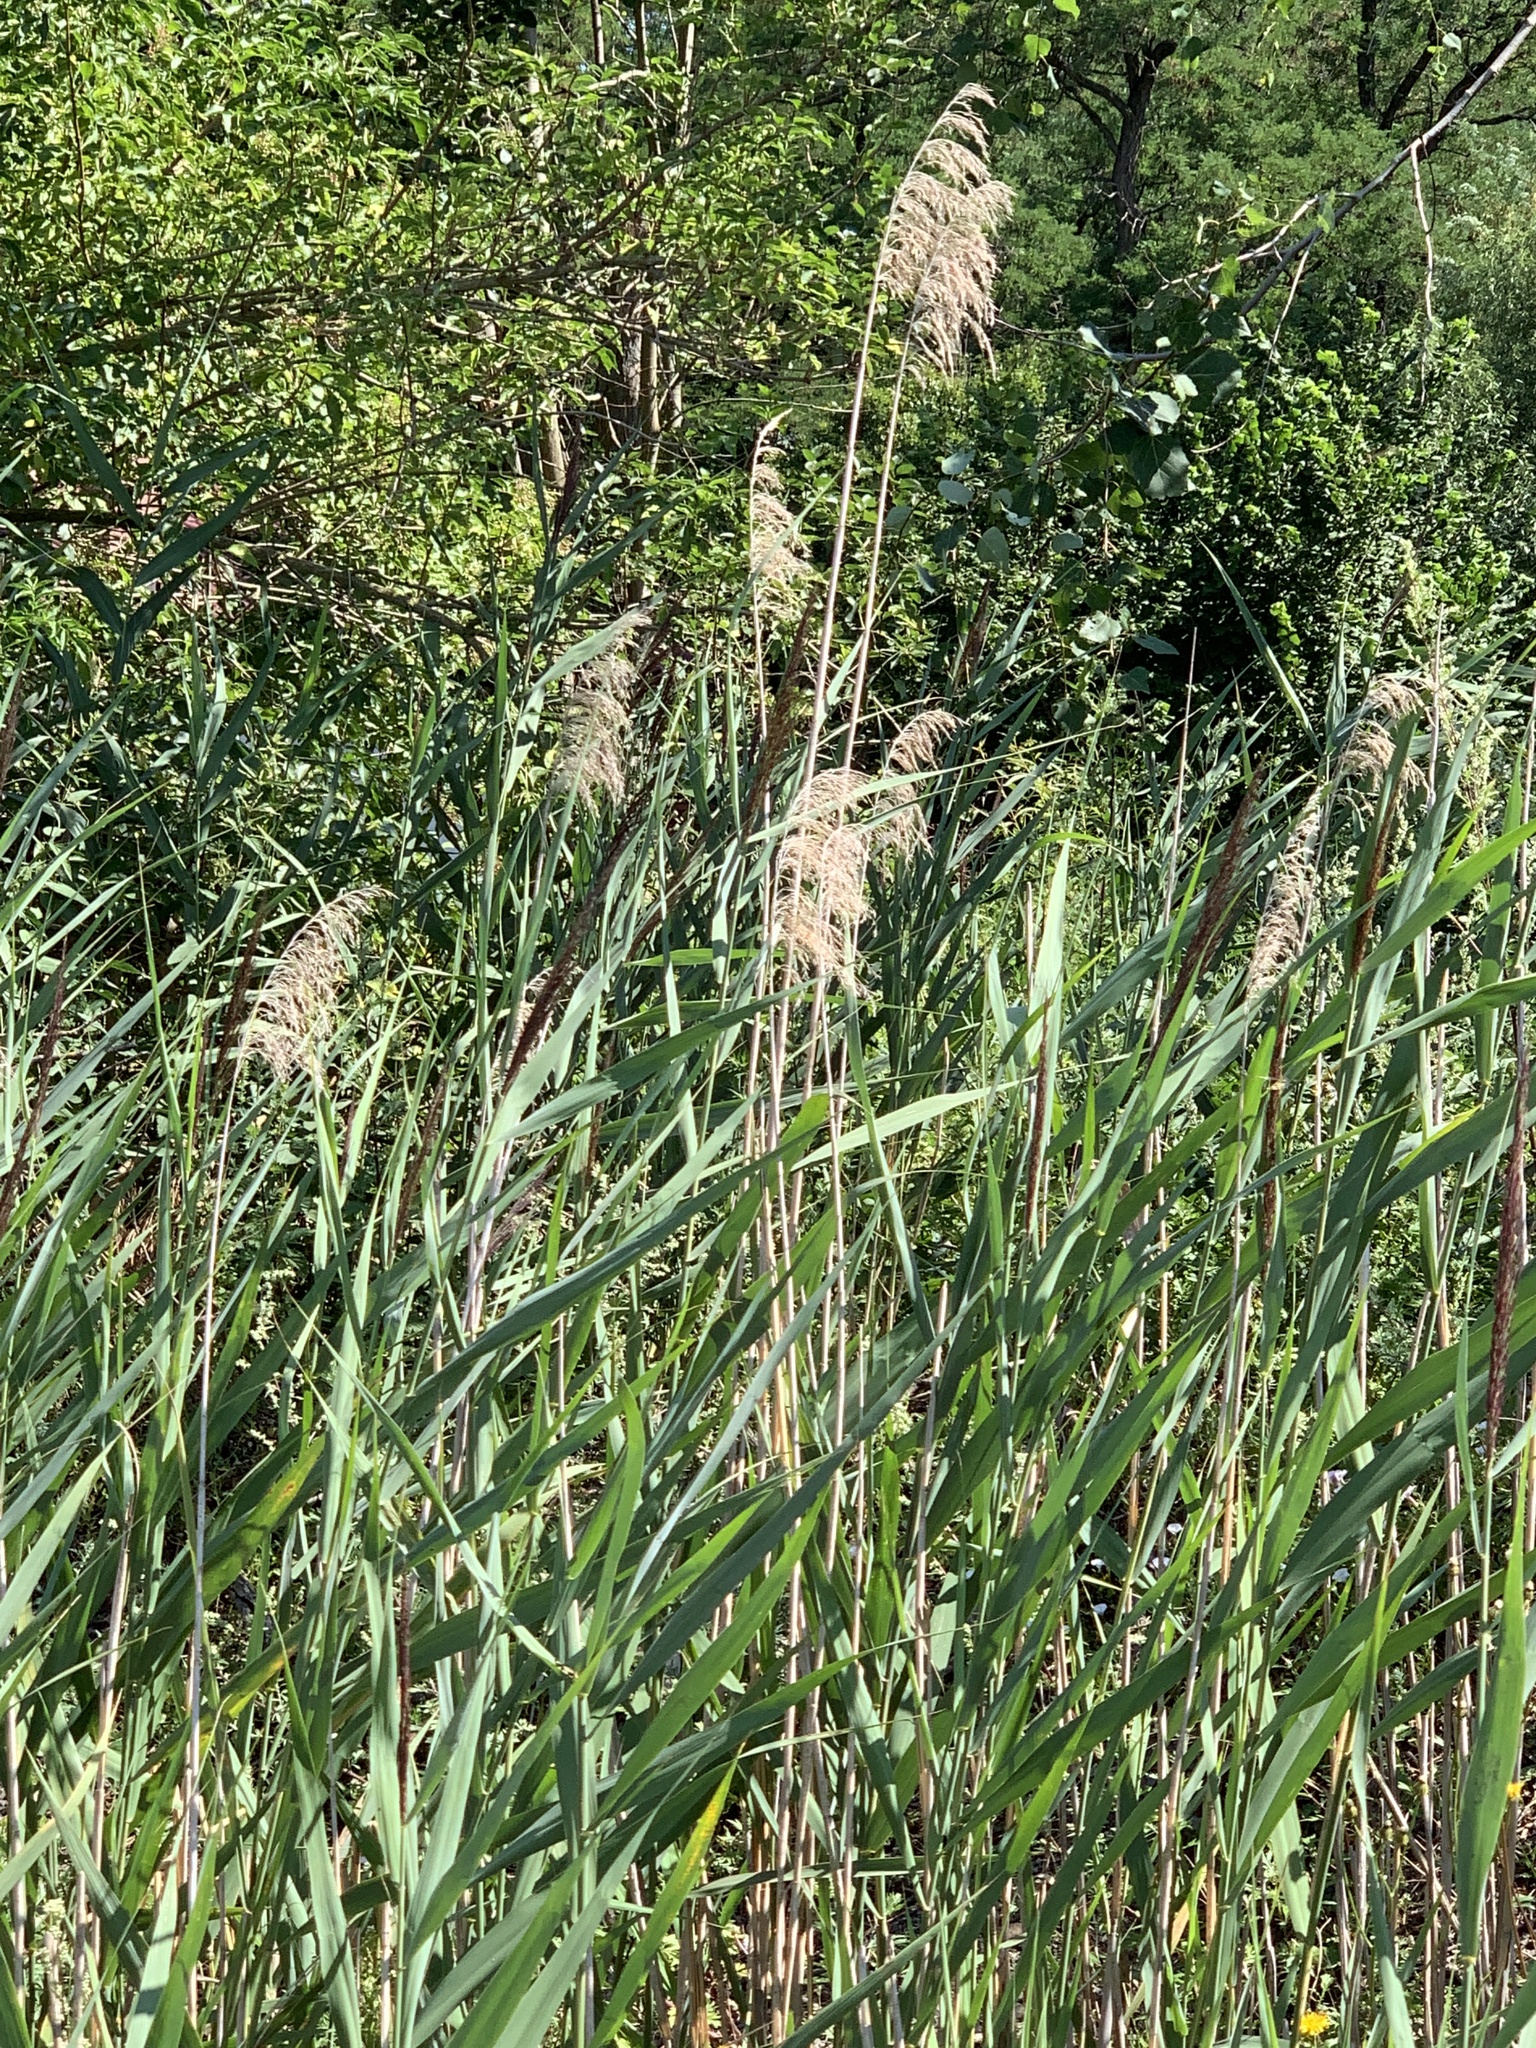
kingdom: Plantae
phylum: Tracheophyta
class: Liliopsida
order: Poales
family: Poaceae
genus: Phragmites
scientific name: Phragmites australis
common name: Common reed
